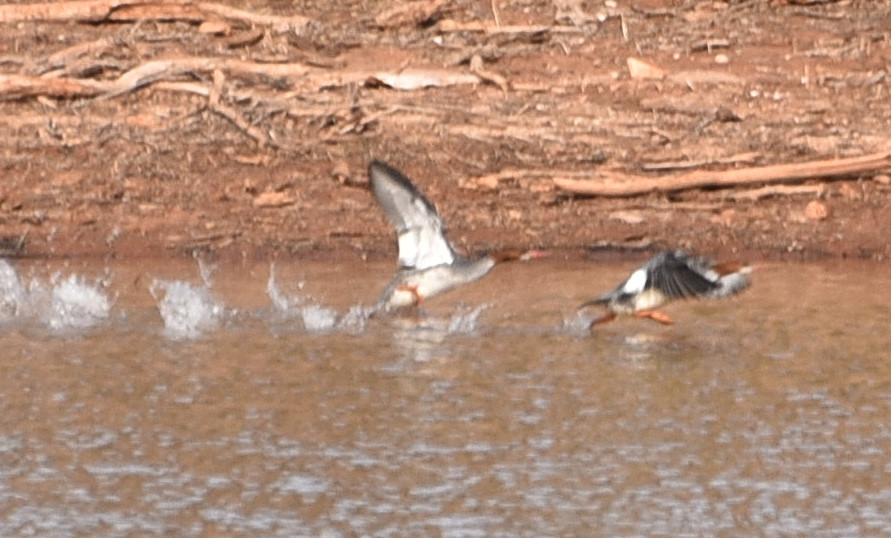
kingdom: Animalia
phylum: Chordata
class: Aves
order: Anseriformes
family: Anatidae
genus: Mergus
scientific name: Mergus merganser
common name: Common merganser
